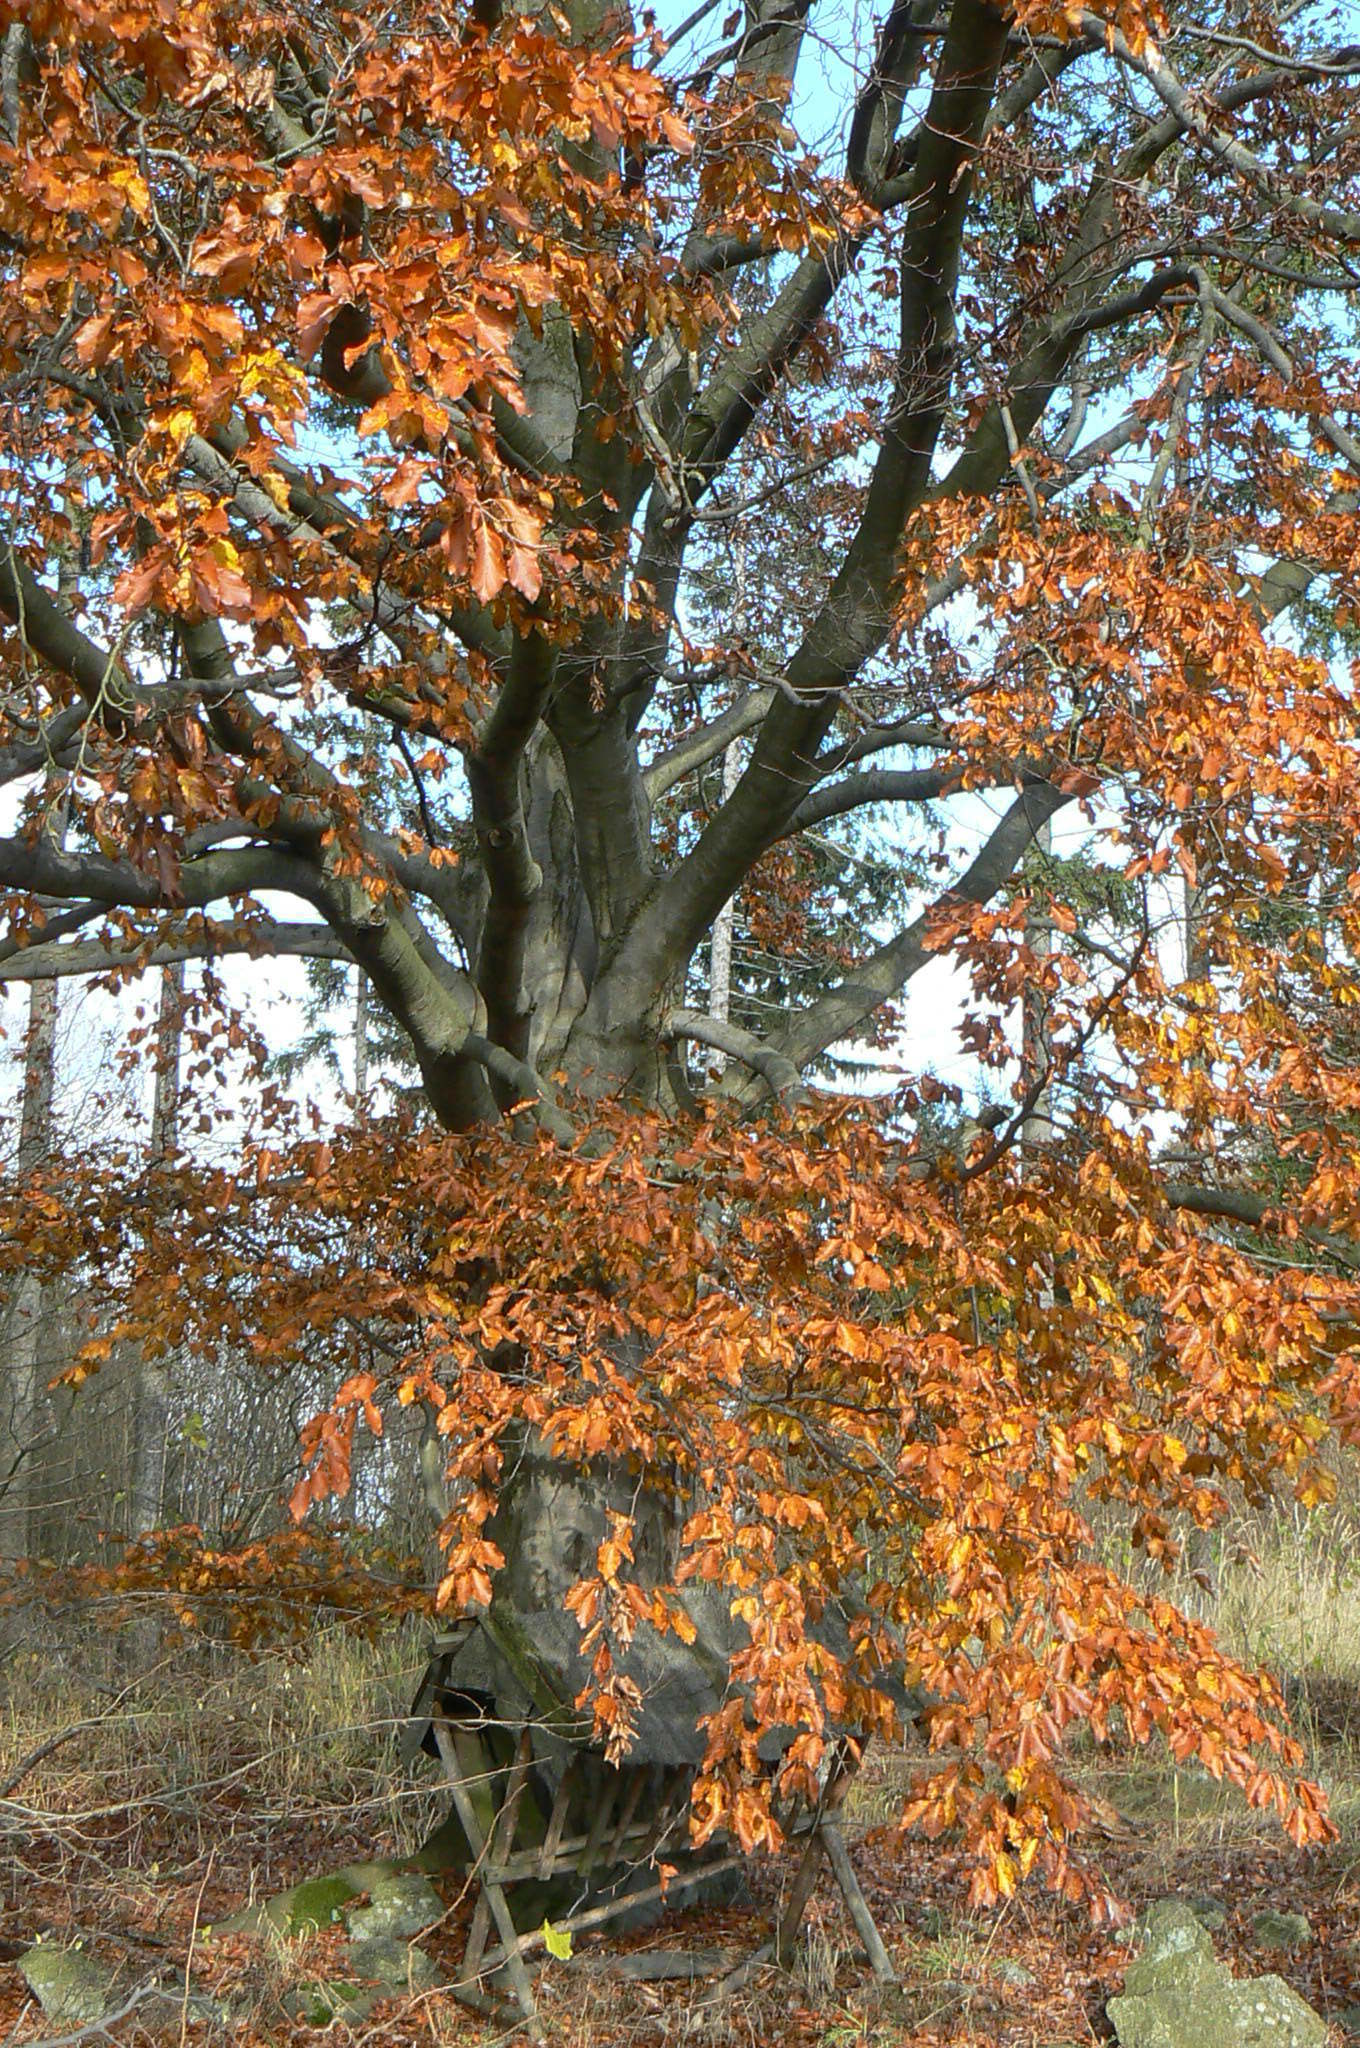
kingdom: Plantae
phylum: Tracheophyta
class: Magnoliopsida
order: Fagales
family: Fagaceae
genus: Fagus
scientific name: Fagus sylvatica
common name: Beech
